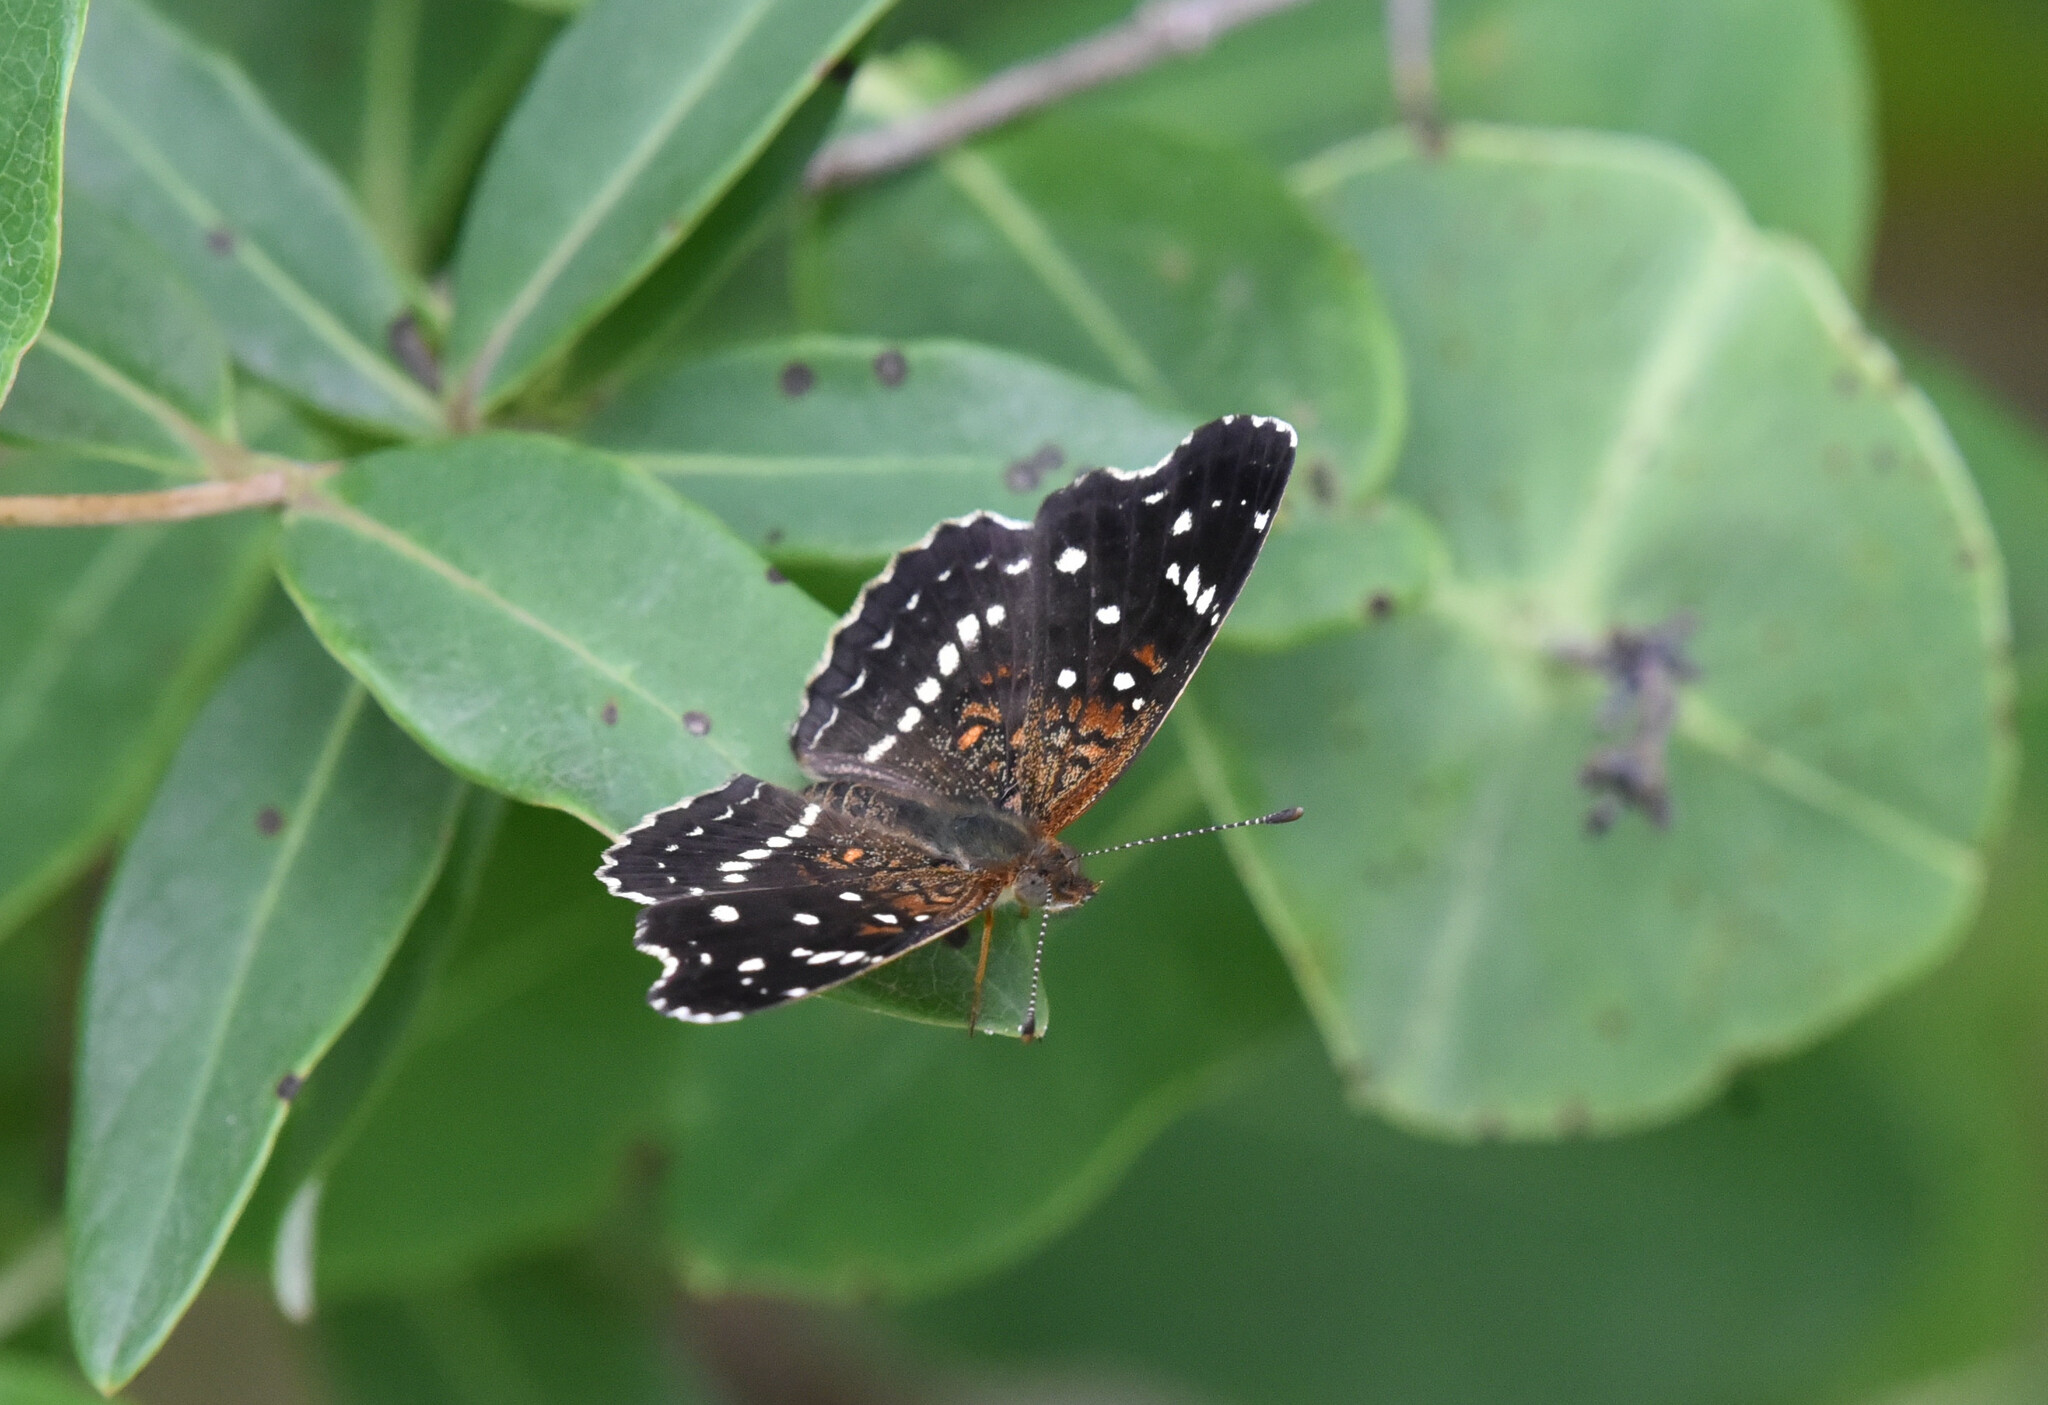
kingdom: Animalia
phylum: Arthropoda
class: Insecta
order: Lepidoptera
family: Nymphalidae
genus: Anthanassa
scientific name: Anthanassa texana
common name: Texan crescent
